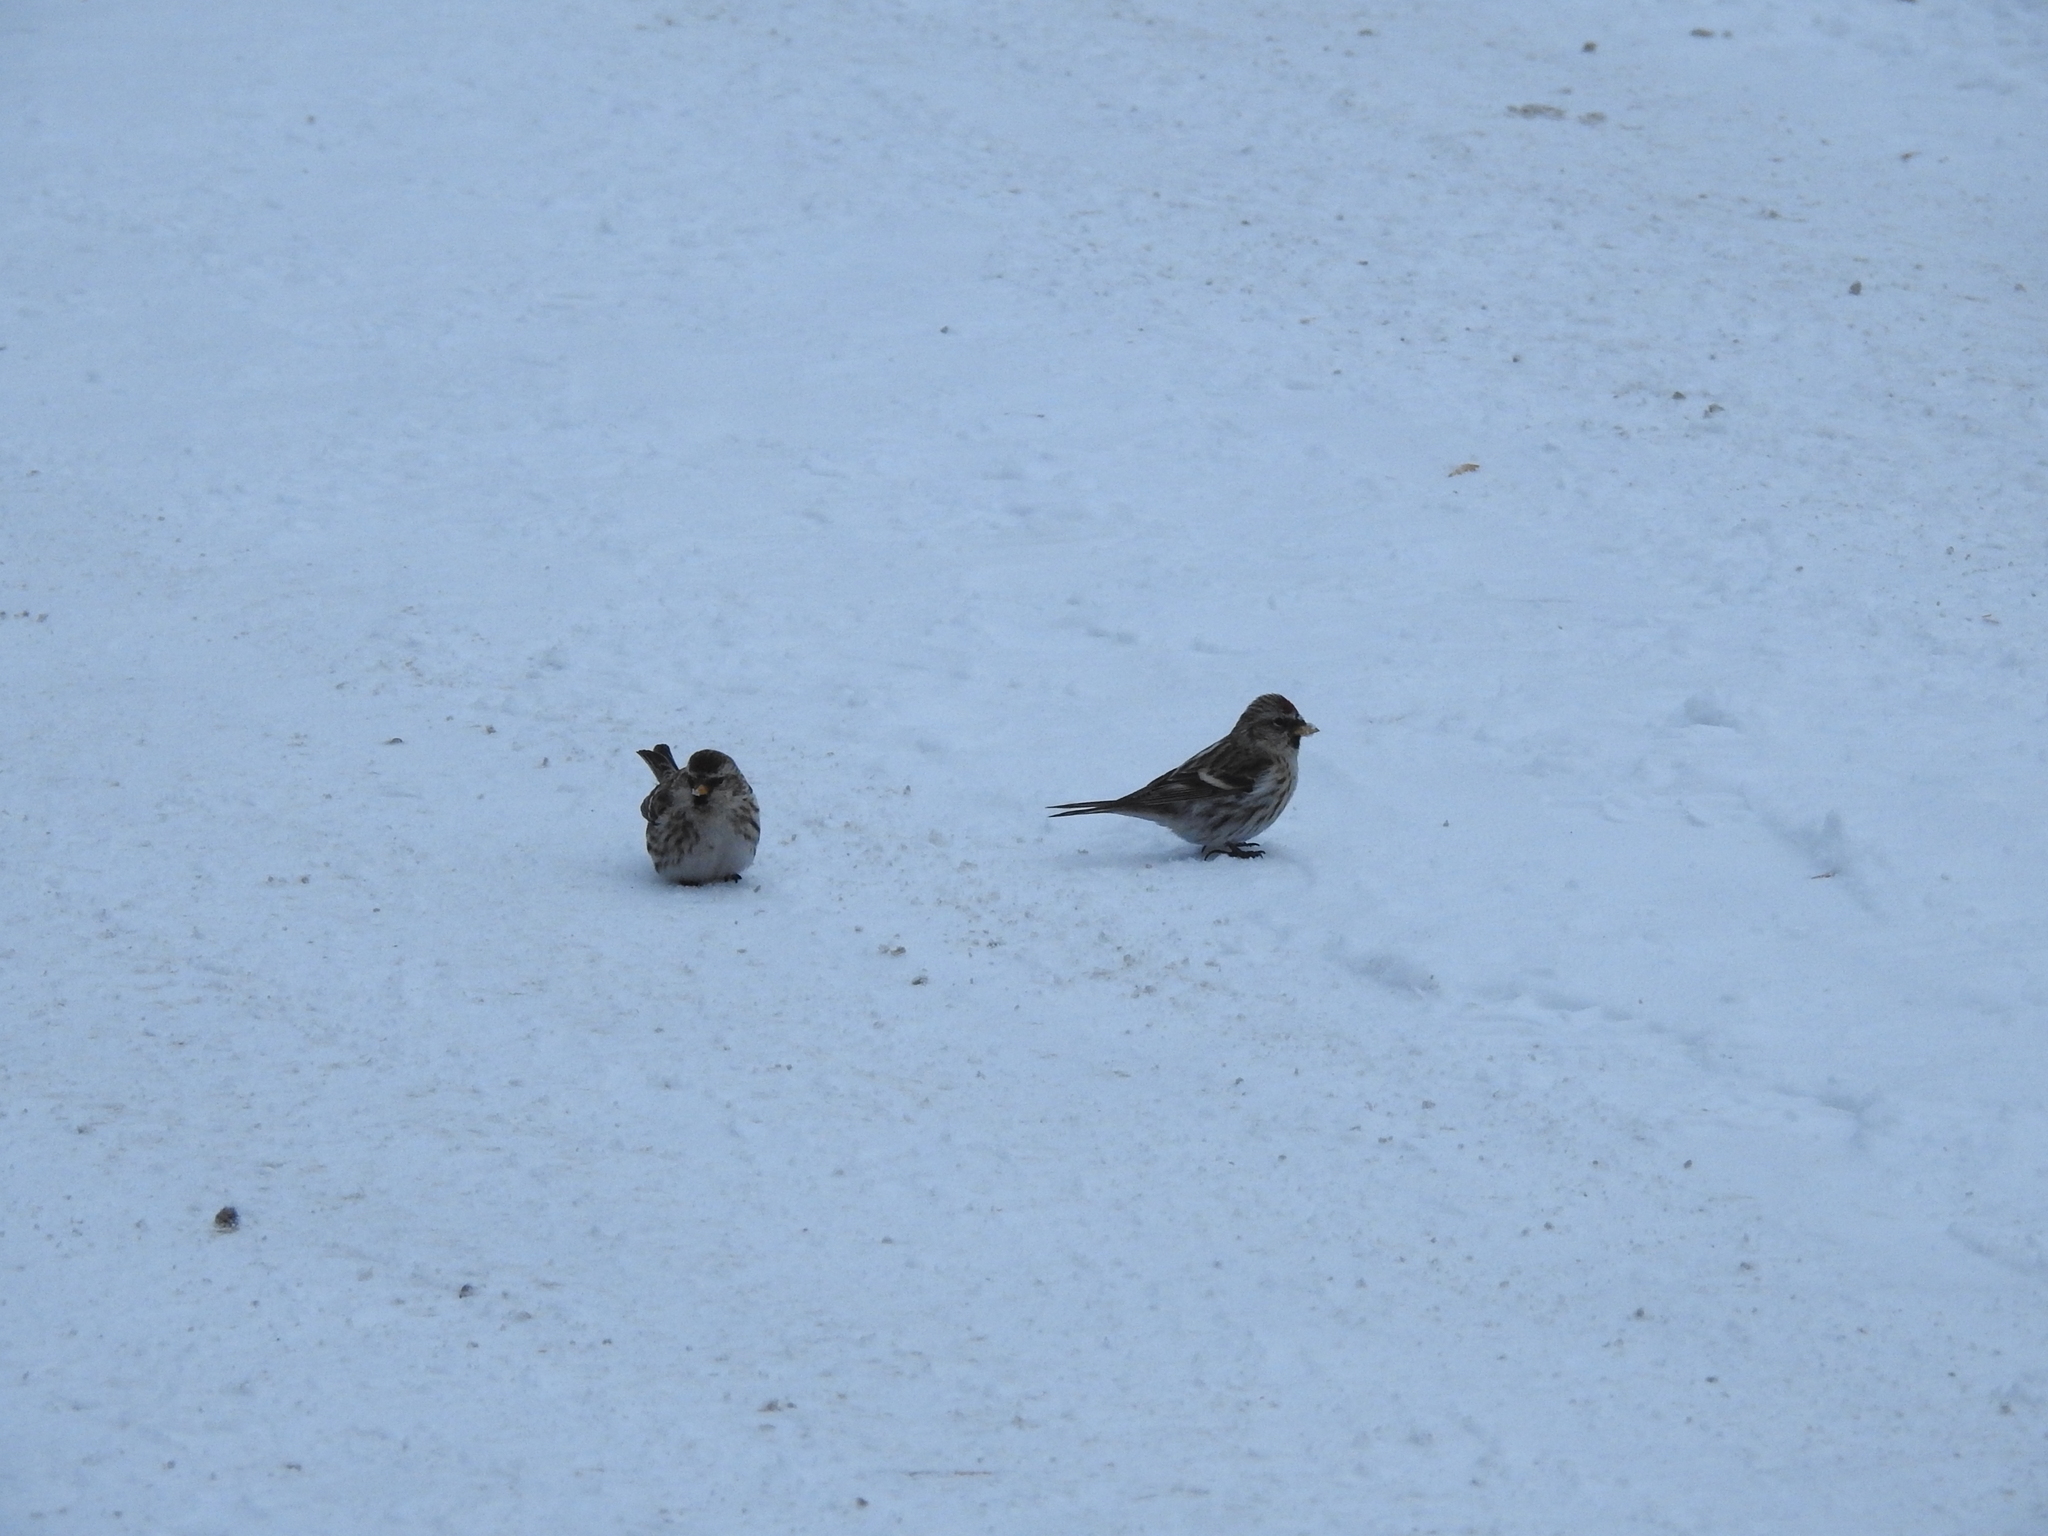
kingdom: Animalia
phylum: Chordata
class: Aves
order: Passeriformes
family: Fringillidae
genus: Acanthis
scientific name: Acanthis flammea
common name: Common redpoll
